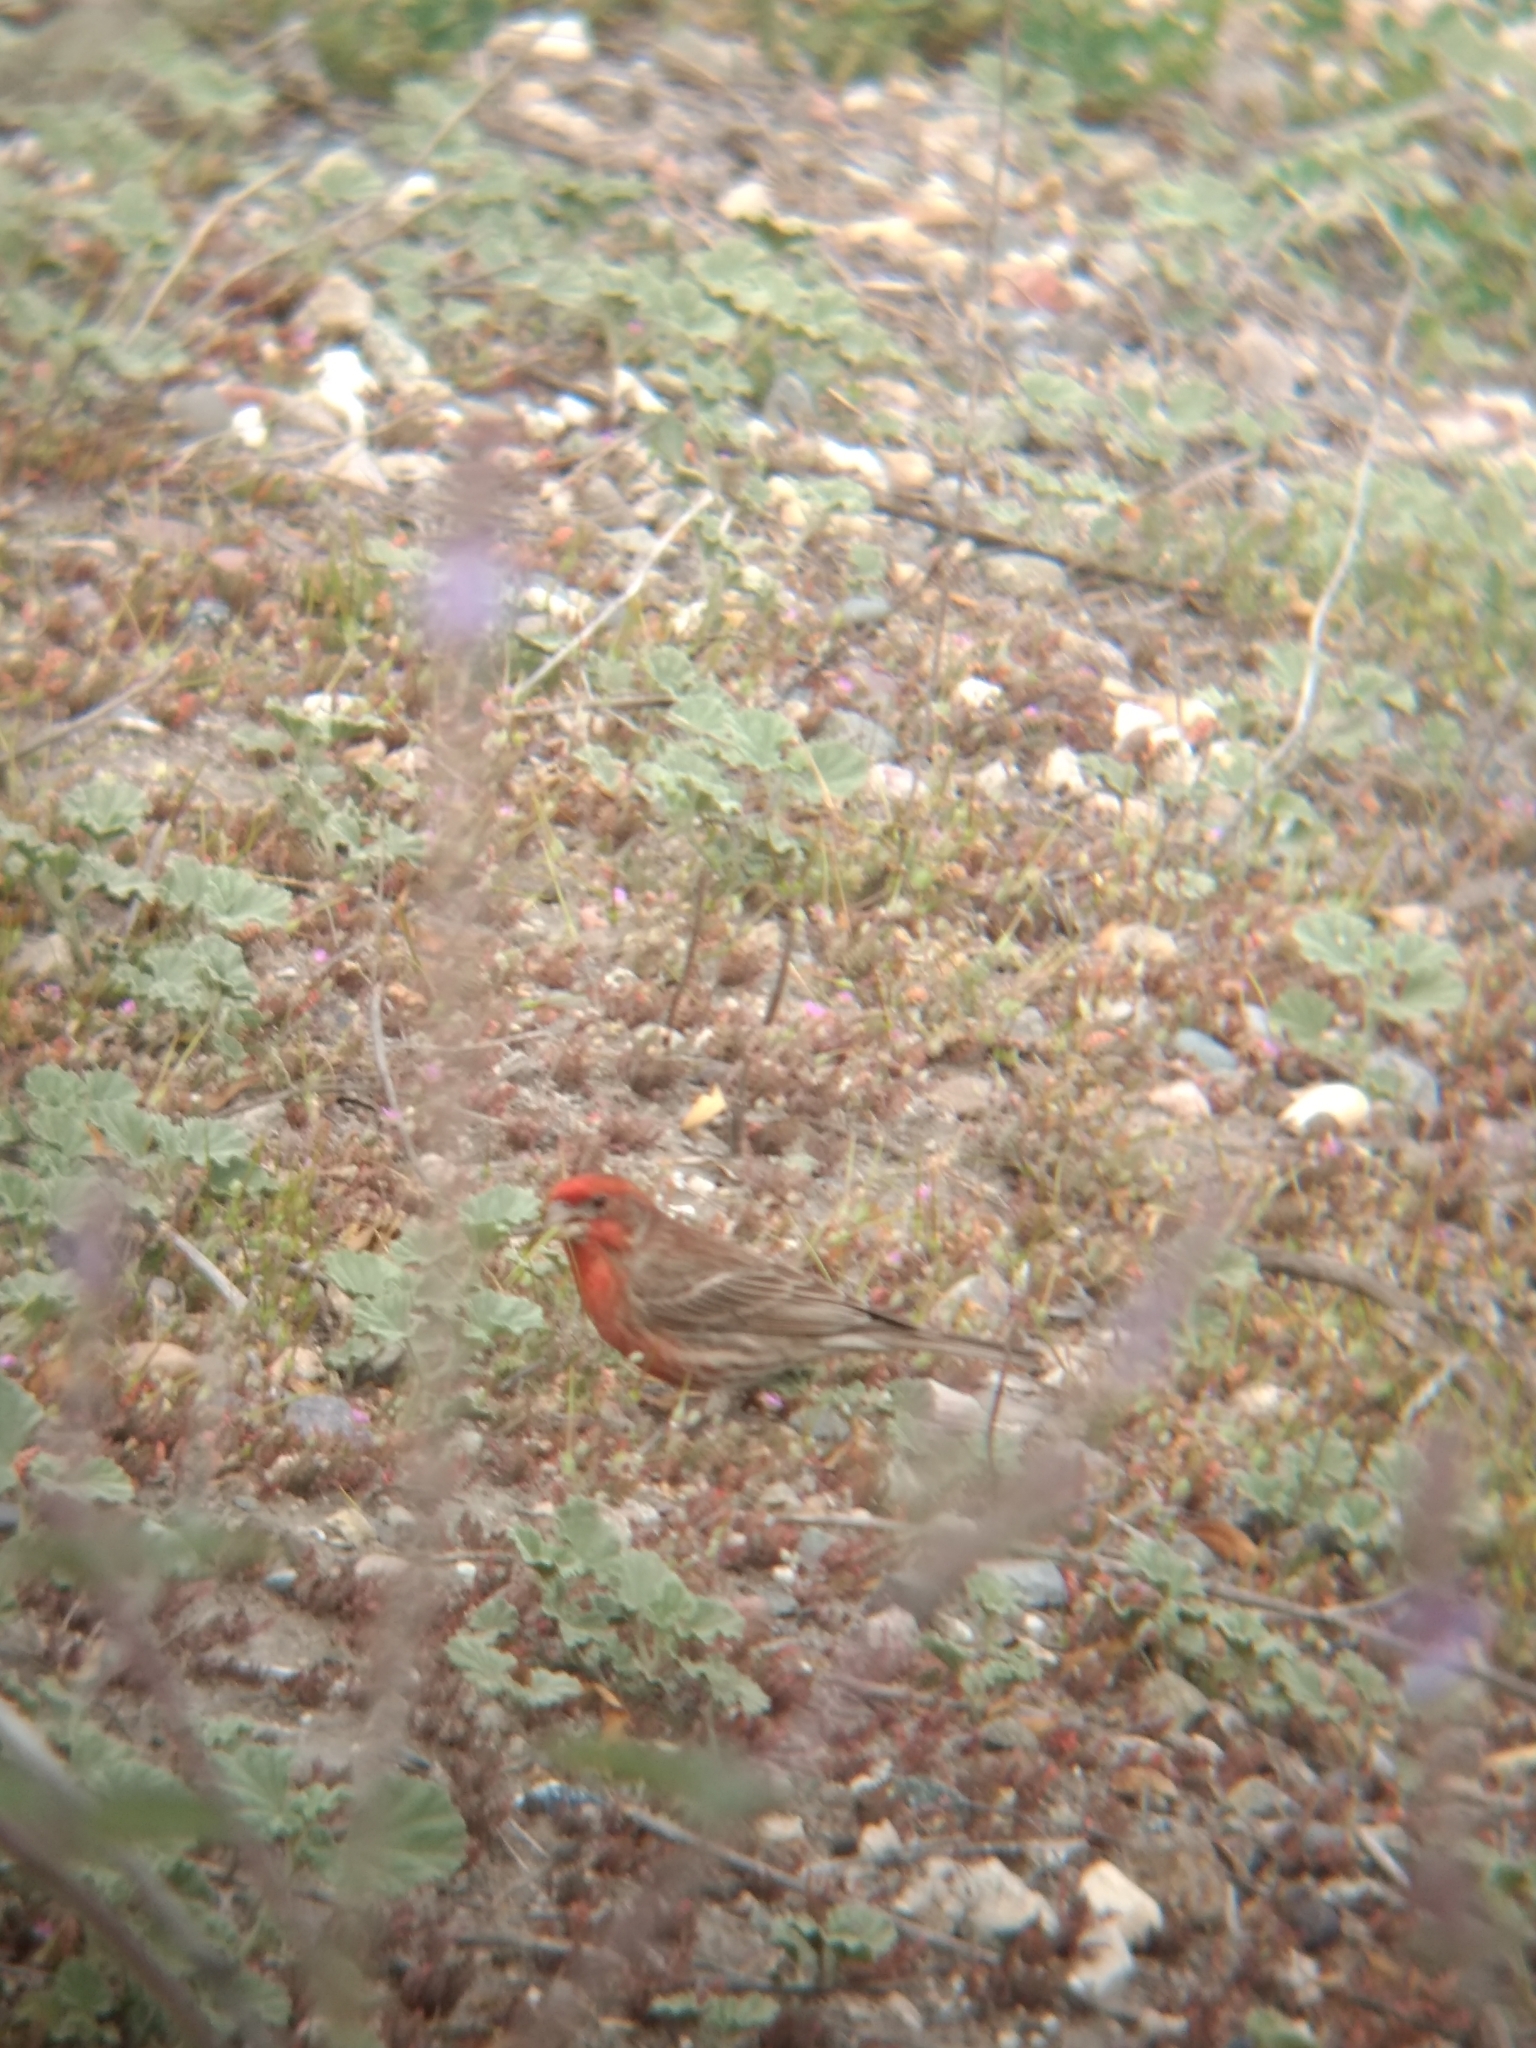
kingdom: Animalia
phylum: Chordata
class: Aves
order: Passeriformes
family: Fringillidae
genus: Haemorhous
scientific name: Haemorhous mexicanus
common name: House finch
